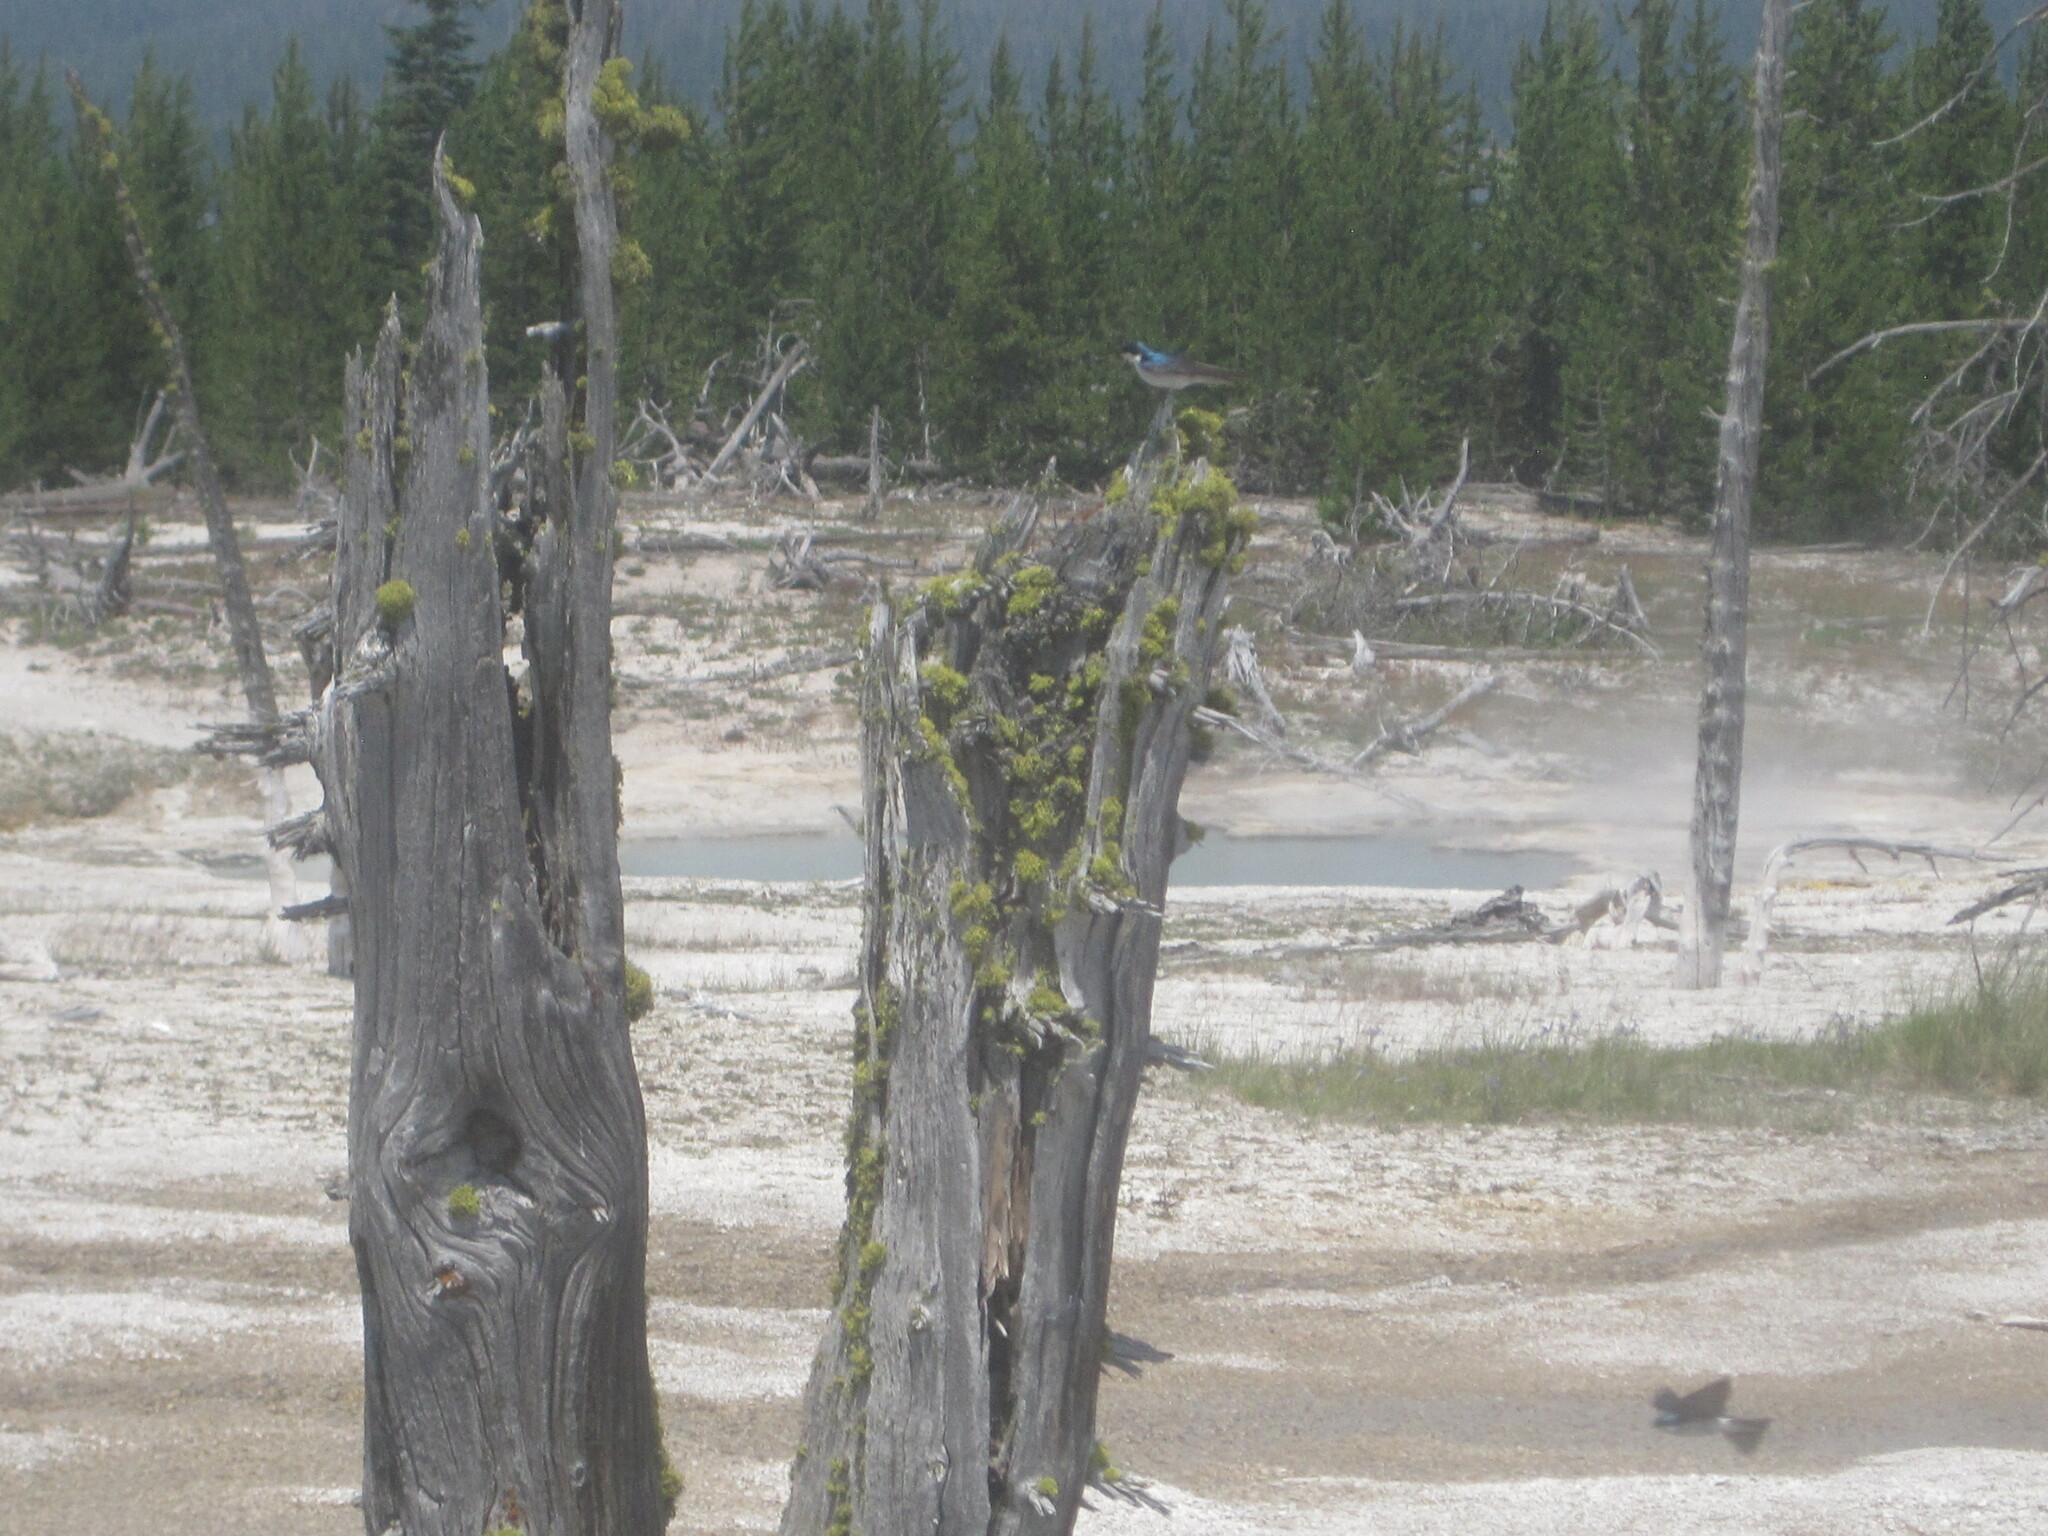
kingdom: Animalia
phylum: Chordata
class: Aves
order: Passeriformes
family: Hirundinidae
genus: Tachycineta
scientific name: Tachycineta bicolor
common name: Tree swallow
